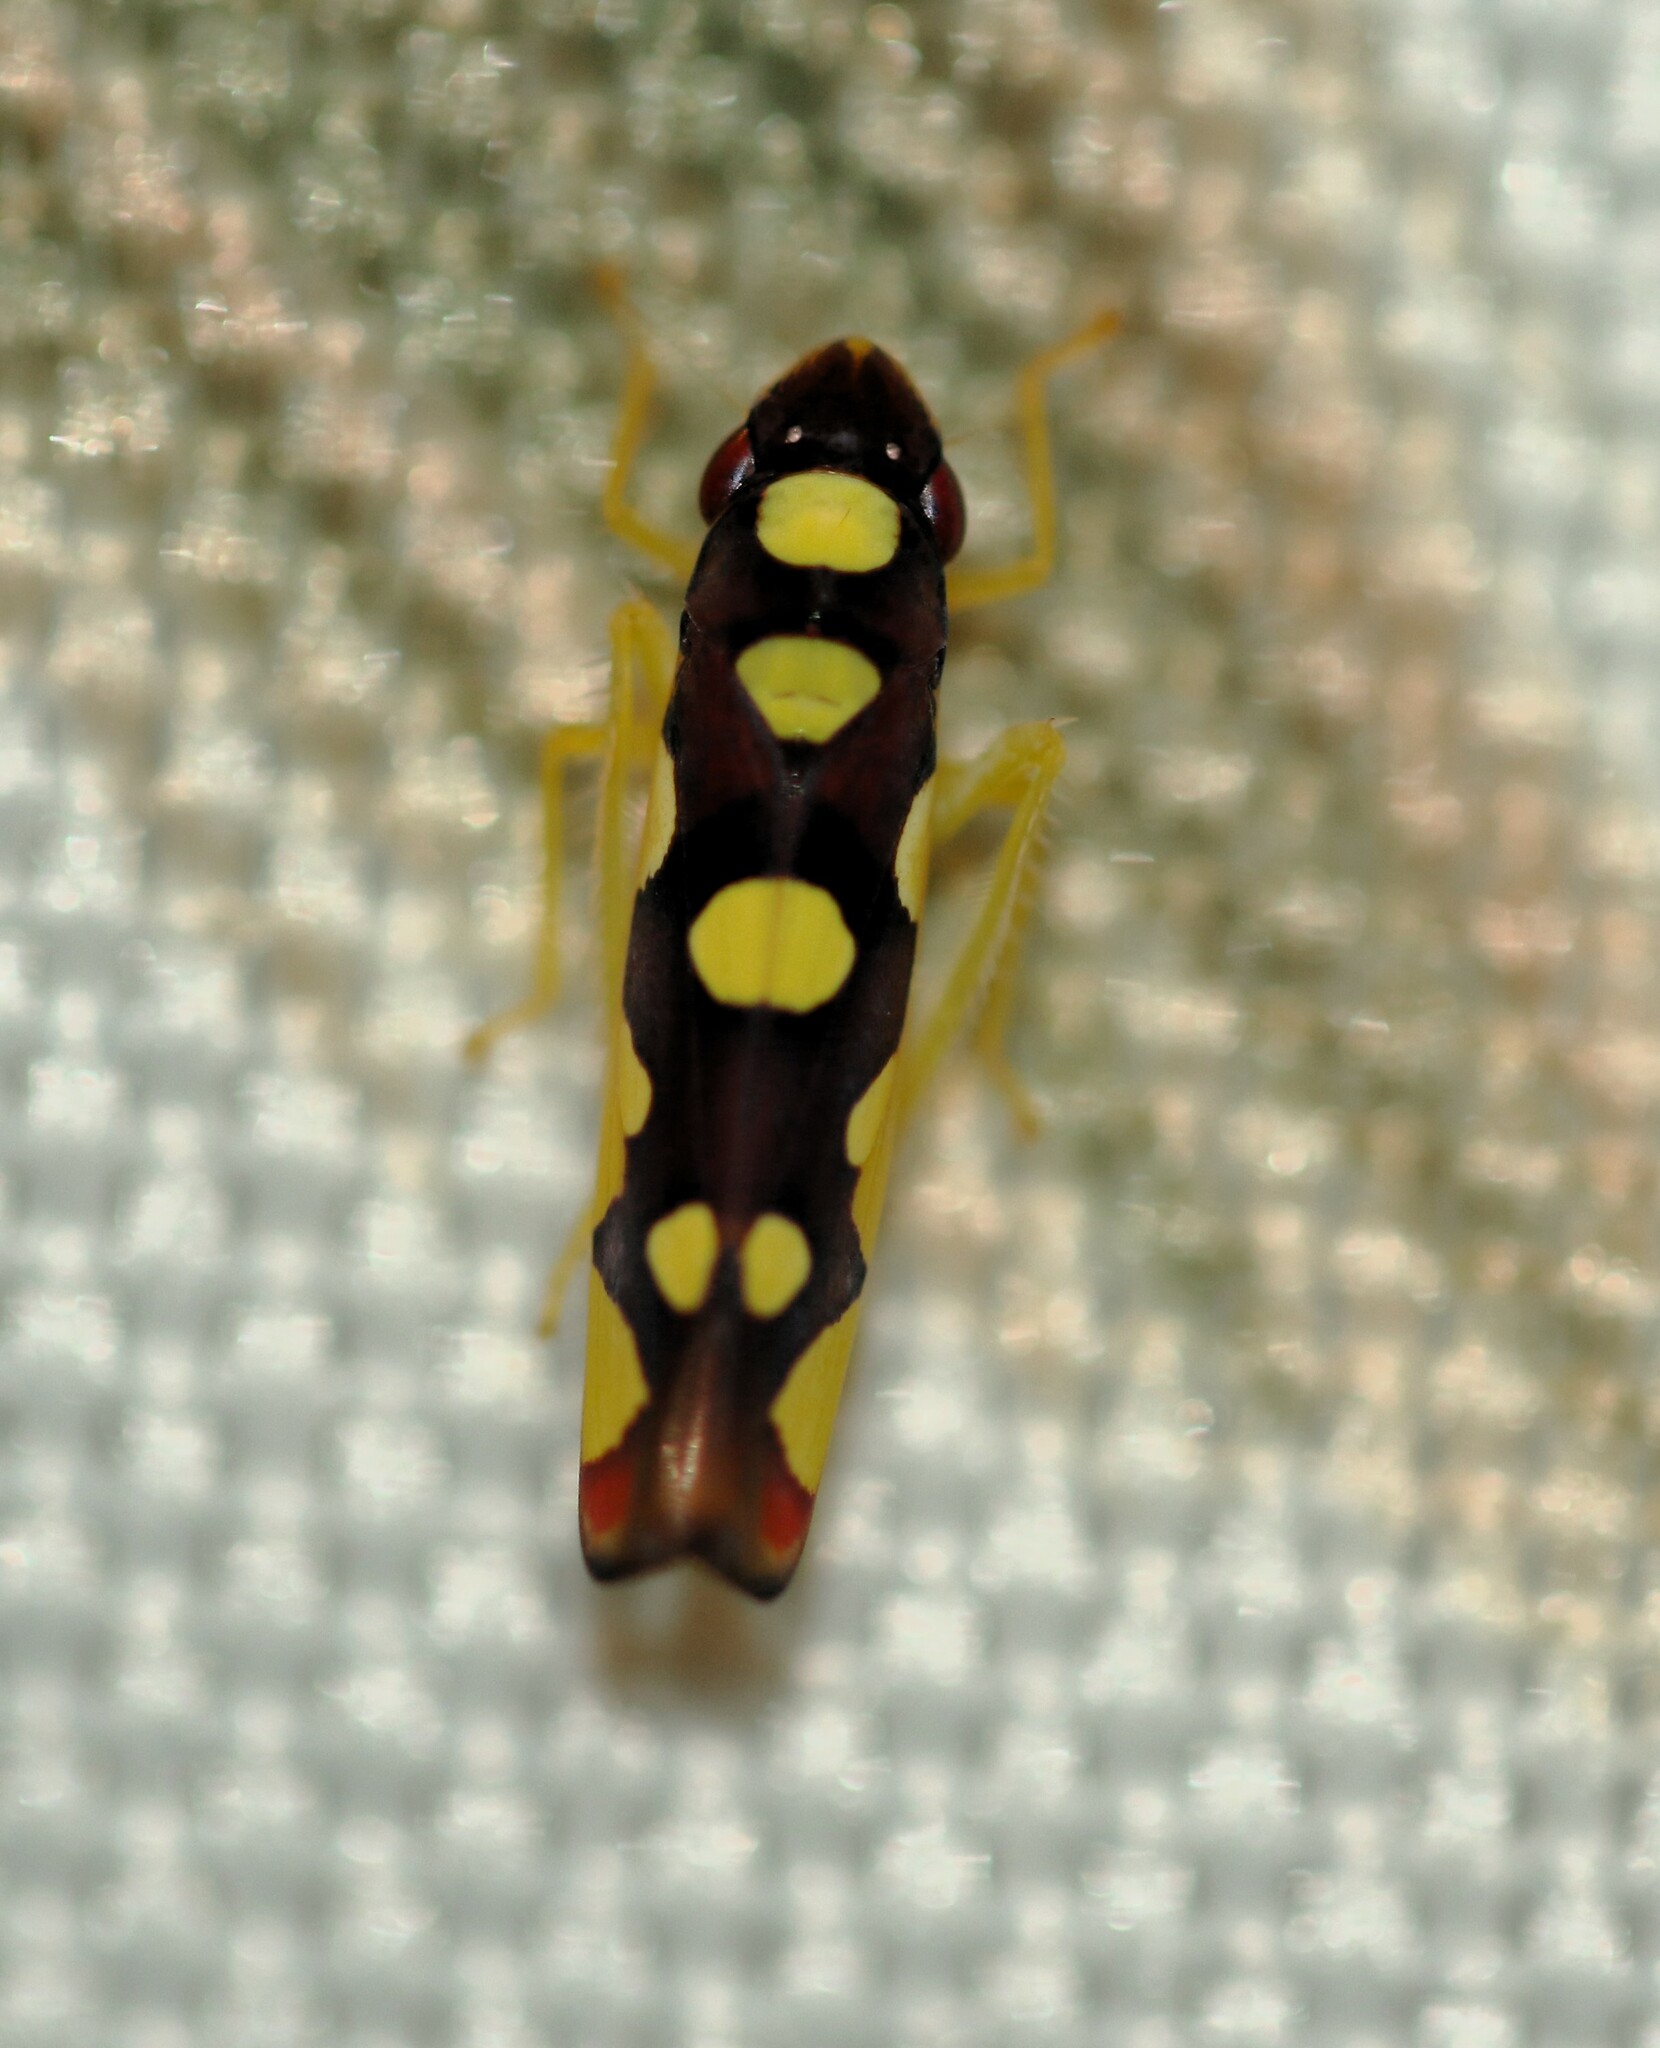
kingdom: Animalia
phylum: Arthropoda
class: Insecta
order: Hemiptera
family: Cicadellidae
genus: Baleja
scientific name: Baleja flavoguttata
